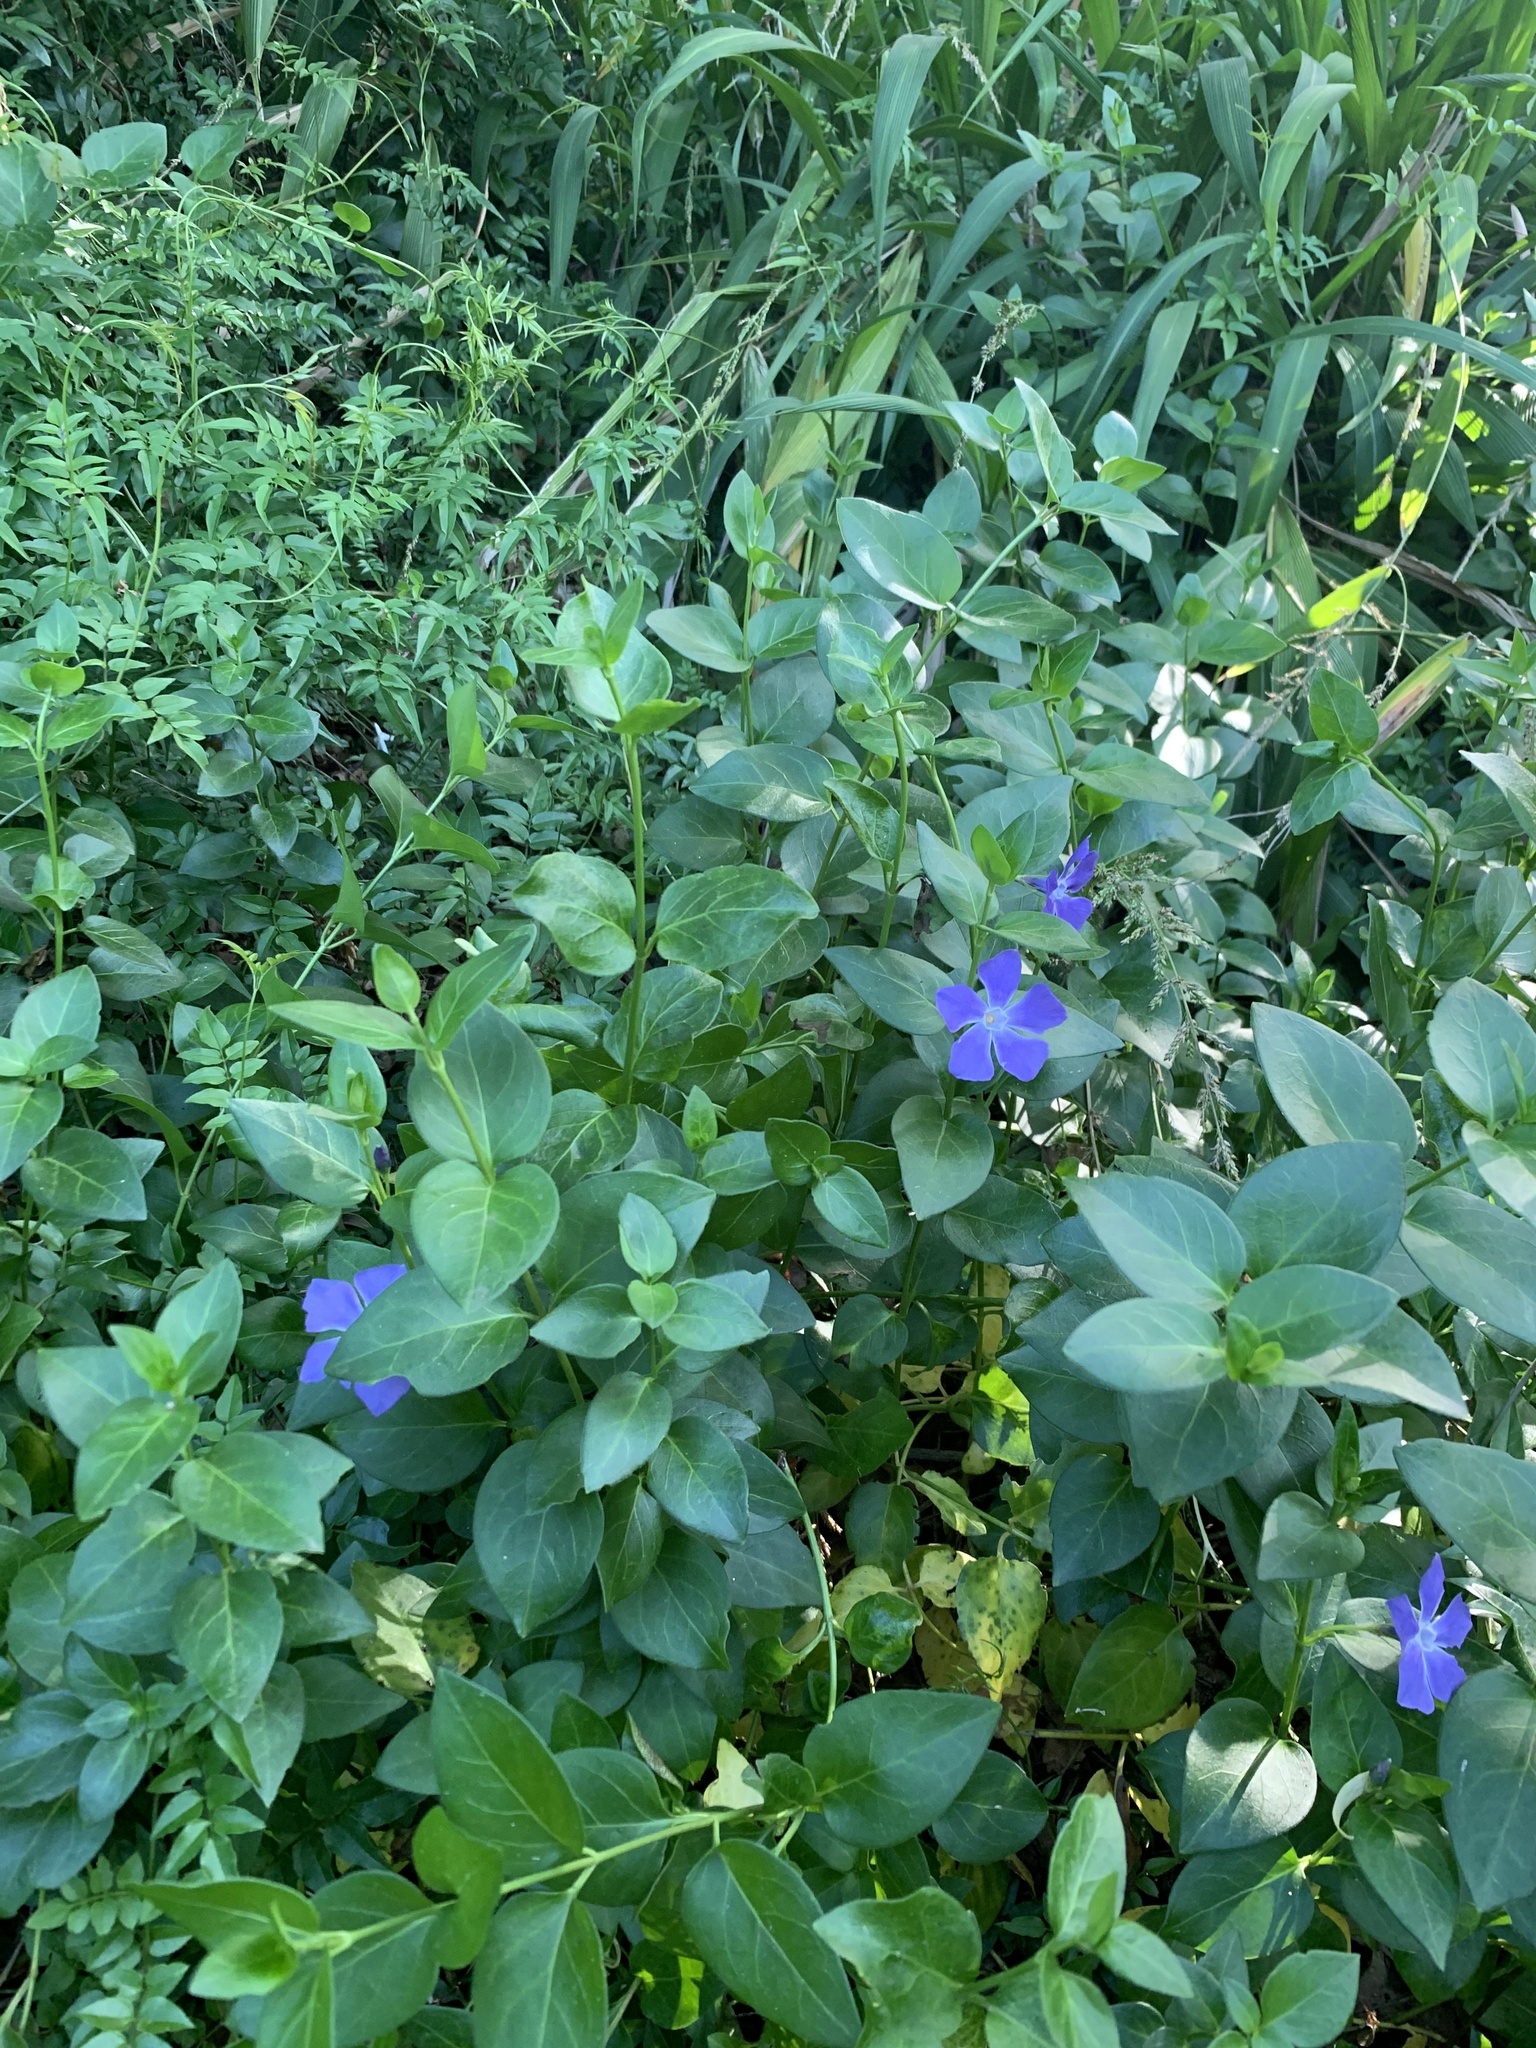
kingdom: Plantae
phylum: Tracheophyta
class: Magnoliopsida
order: Gentianales
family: Apocynaceae
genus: Vinca
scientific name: Vinca major
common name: Greater periwinkle
